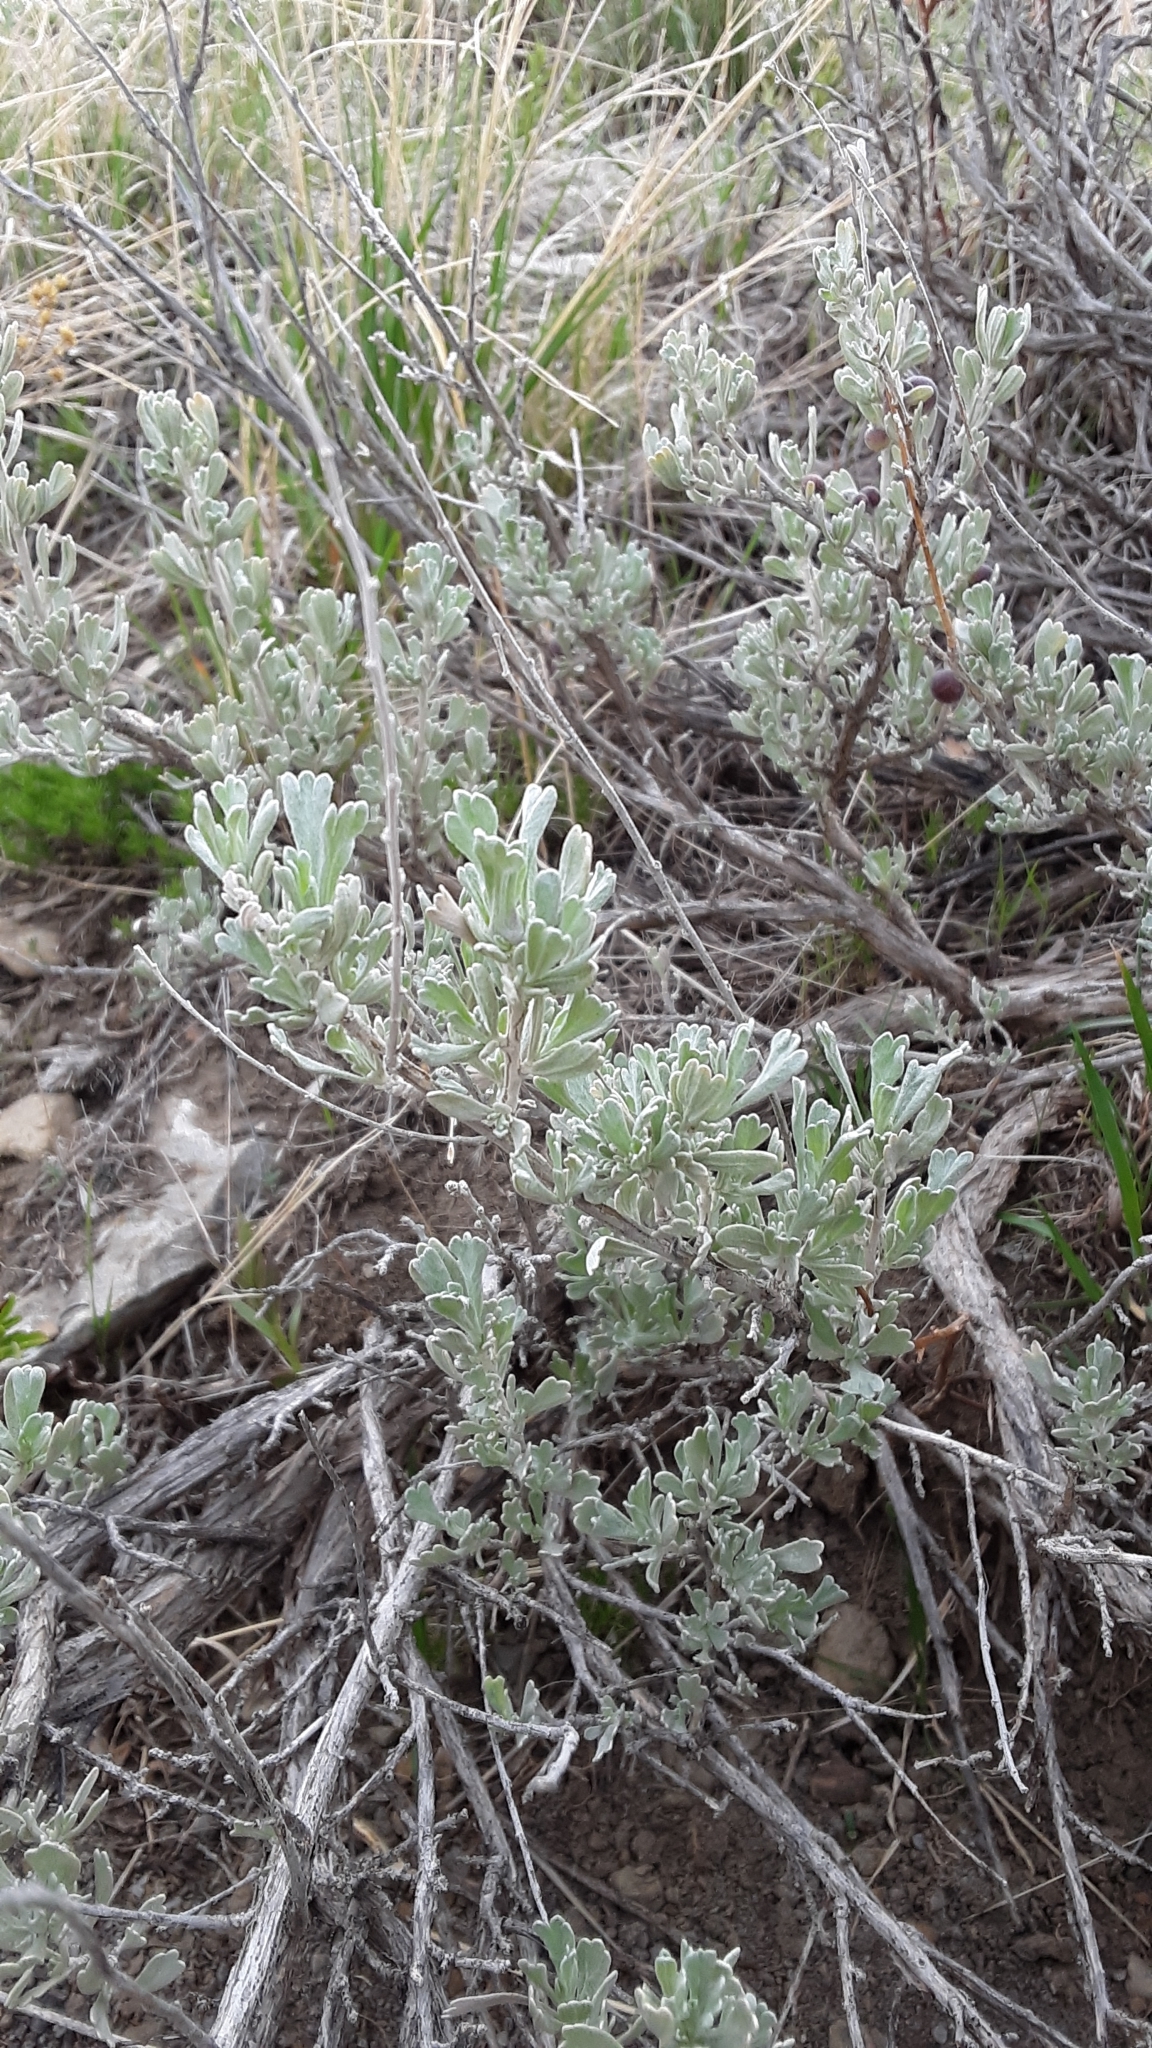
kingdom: Plantae
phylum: Tracheophyta
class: Magnoliopsida
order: Asterales
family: Asteraceae
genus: Artemisia
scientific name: Artemisia tridentata
